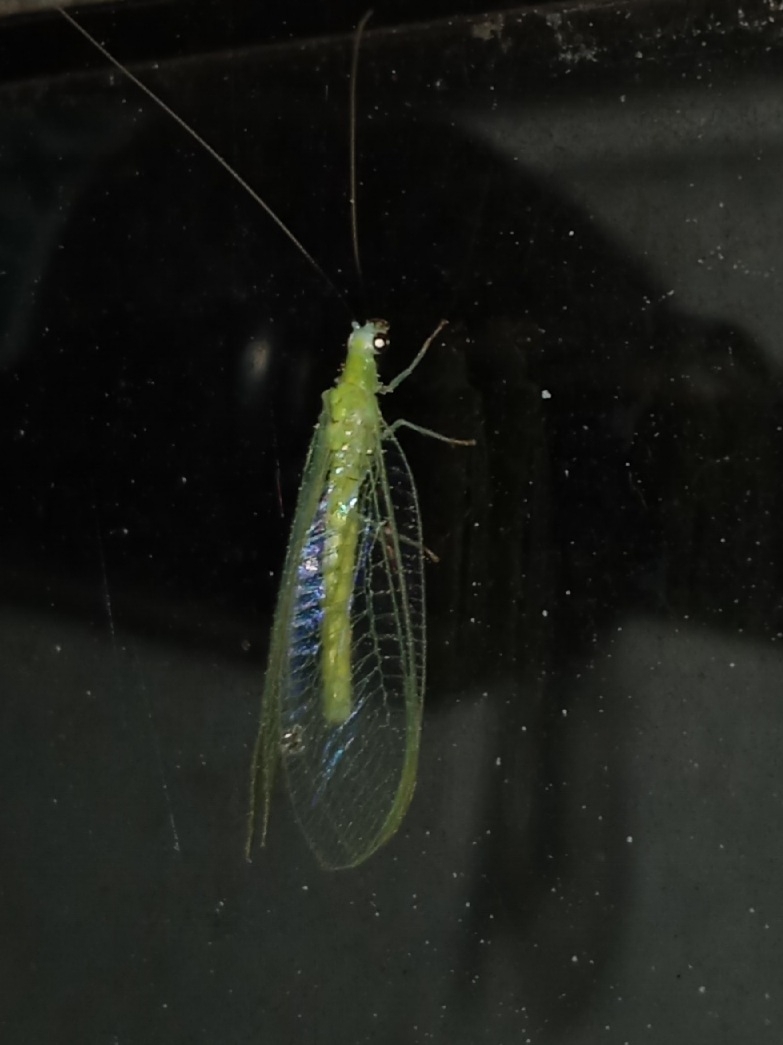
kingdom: Animalia
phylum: Arthropoda
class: Insecta
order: Neuroptera
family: Chrysopidae
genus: Chrysopa
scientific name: Chrysopa nigricornis
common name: Black-horned green lacewing
